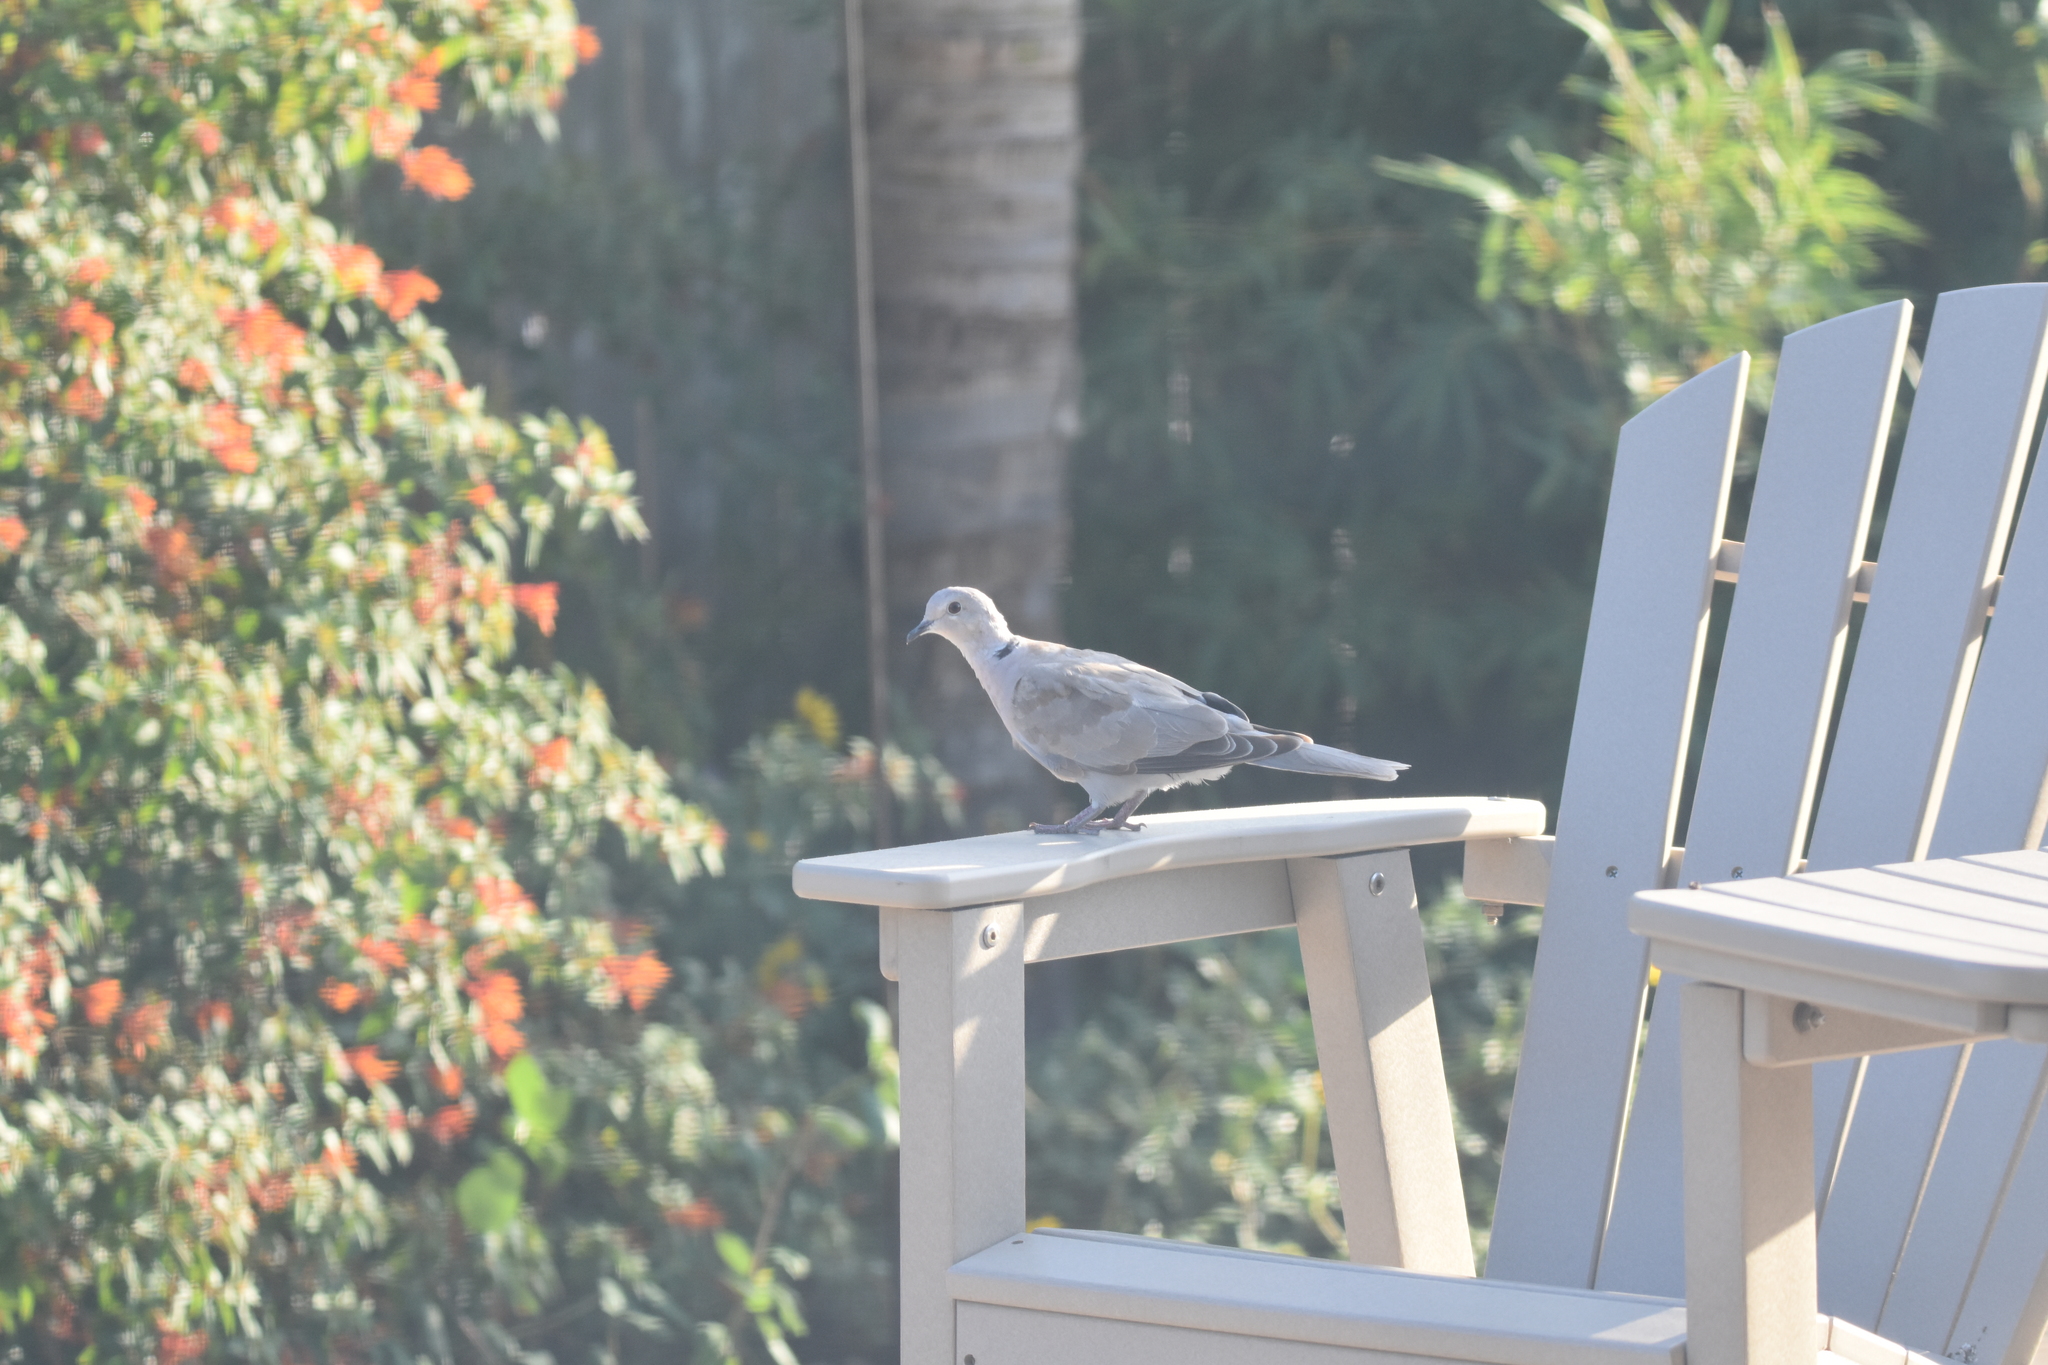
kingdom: Animalia
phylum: Chordata
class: Aves
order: Columbiformes
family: Columbidae
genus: Streptopelia
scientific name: Streptopelia decaocto
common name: Eurasian collared dove
